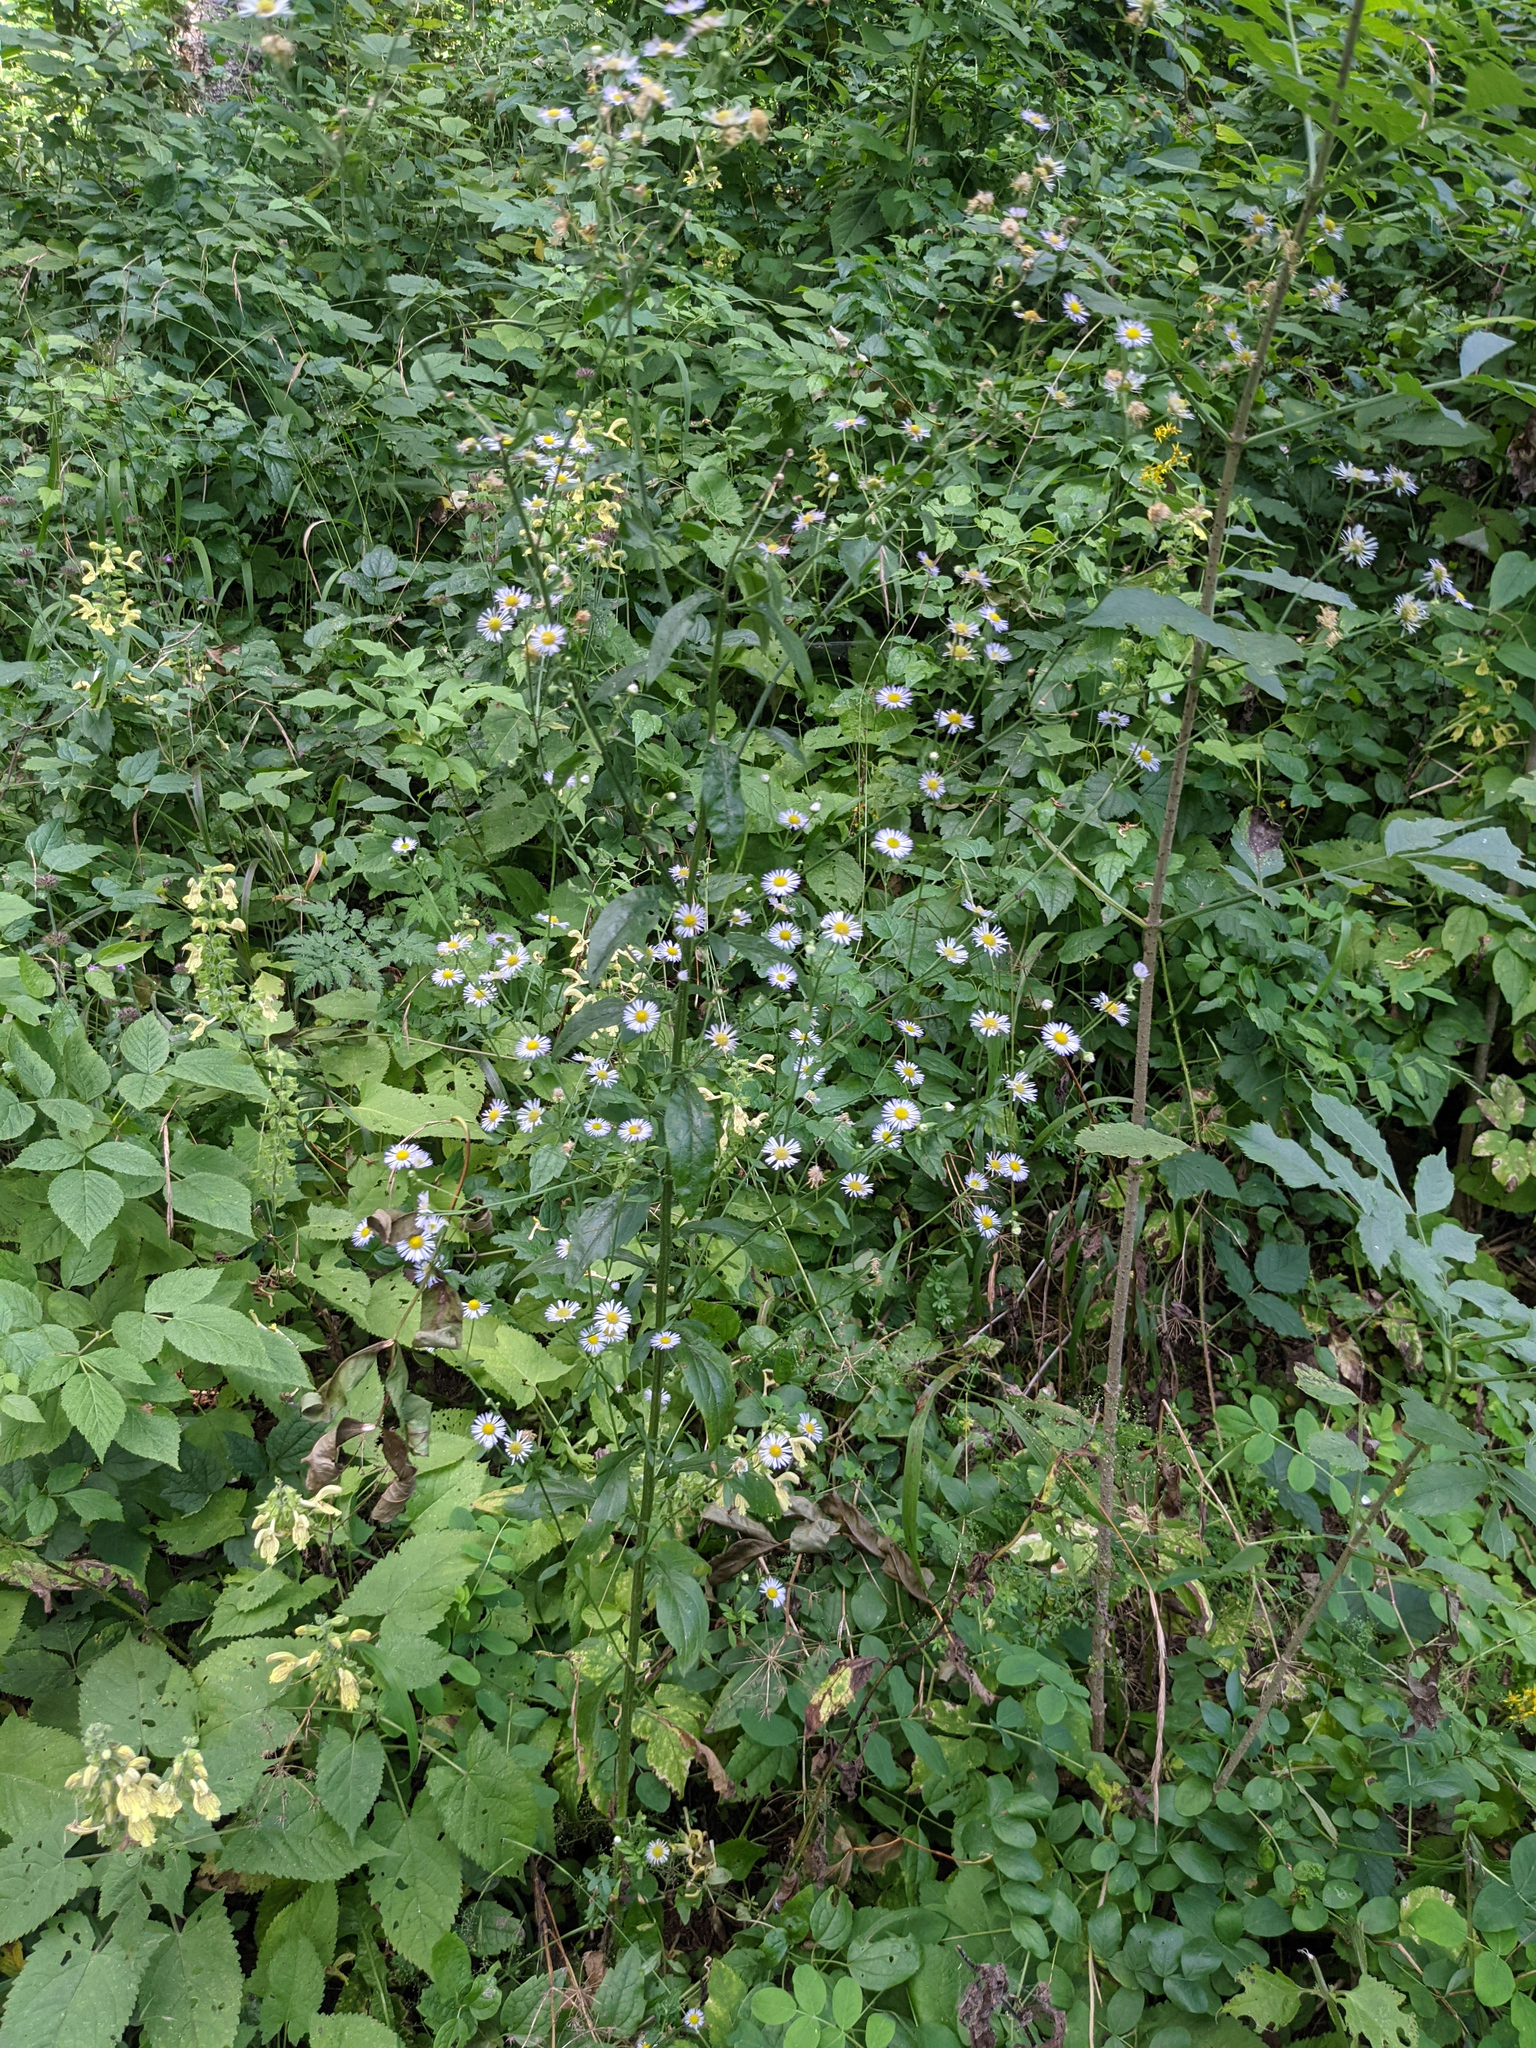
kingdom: Plantae
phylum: Tracheophyta
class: Magnoliopsida
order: Asterales
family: Asteraceae
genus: Erigeron
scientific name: Erigeron annuus
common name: Tall fleabane
